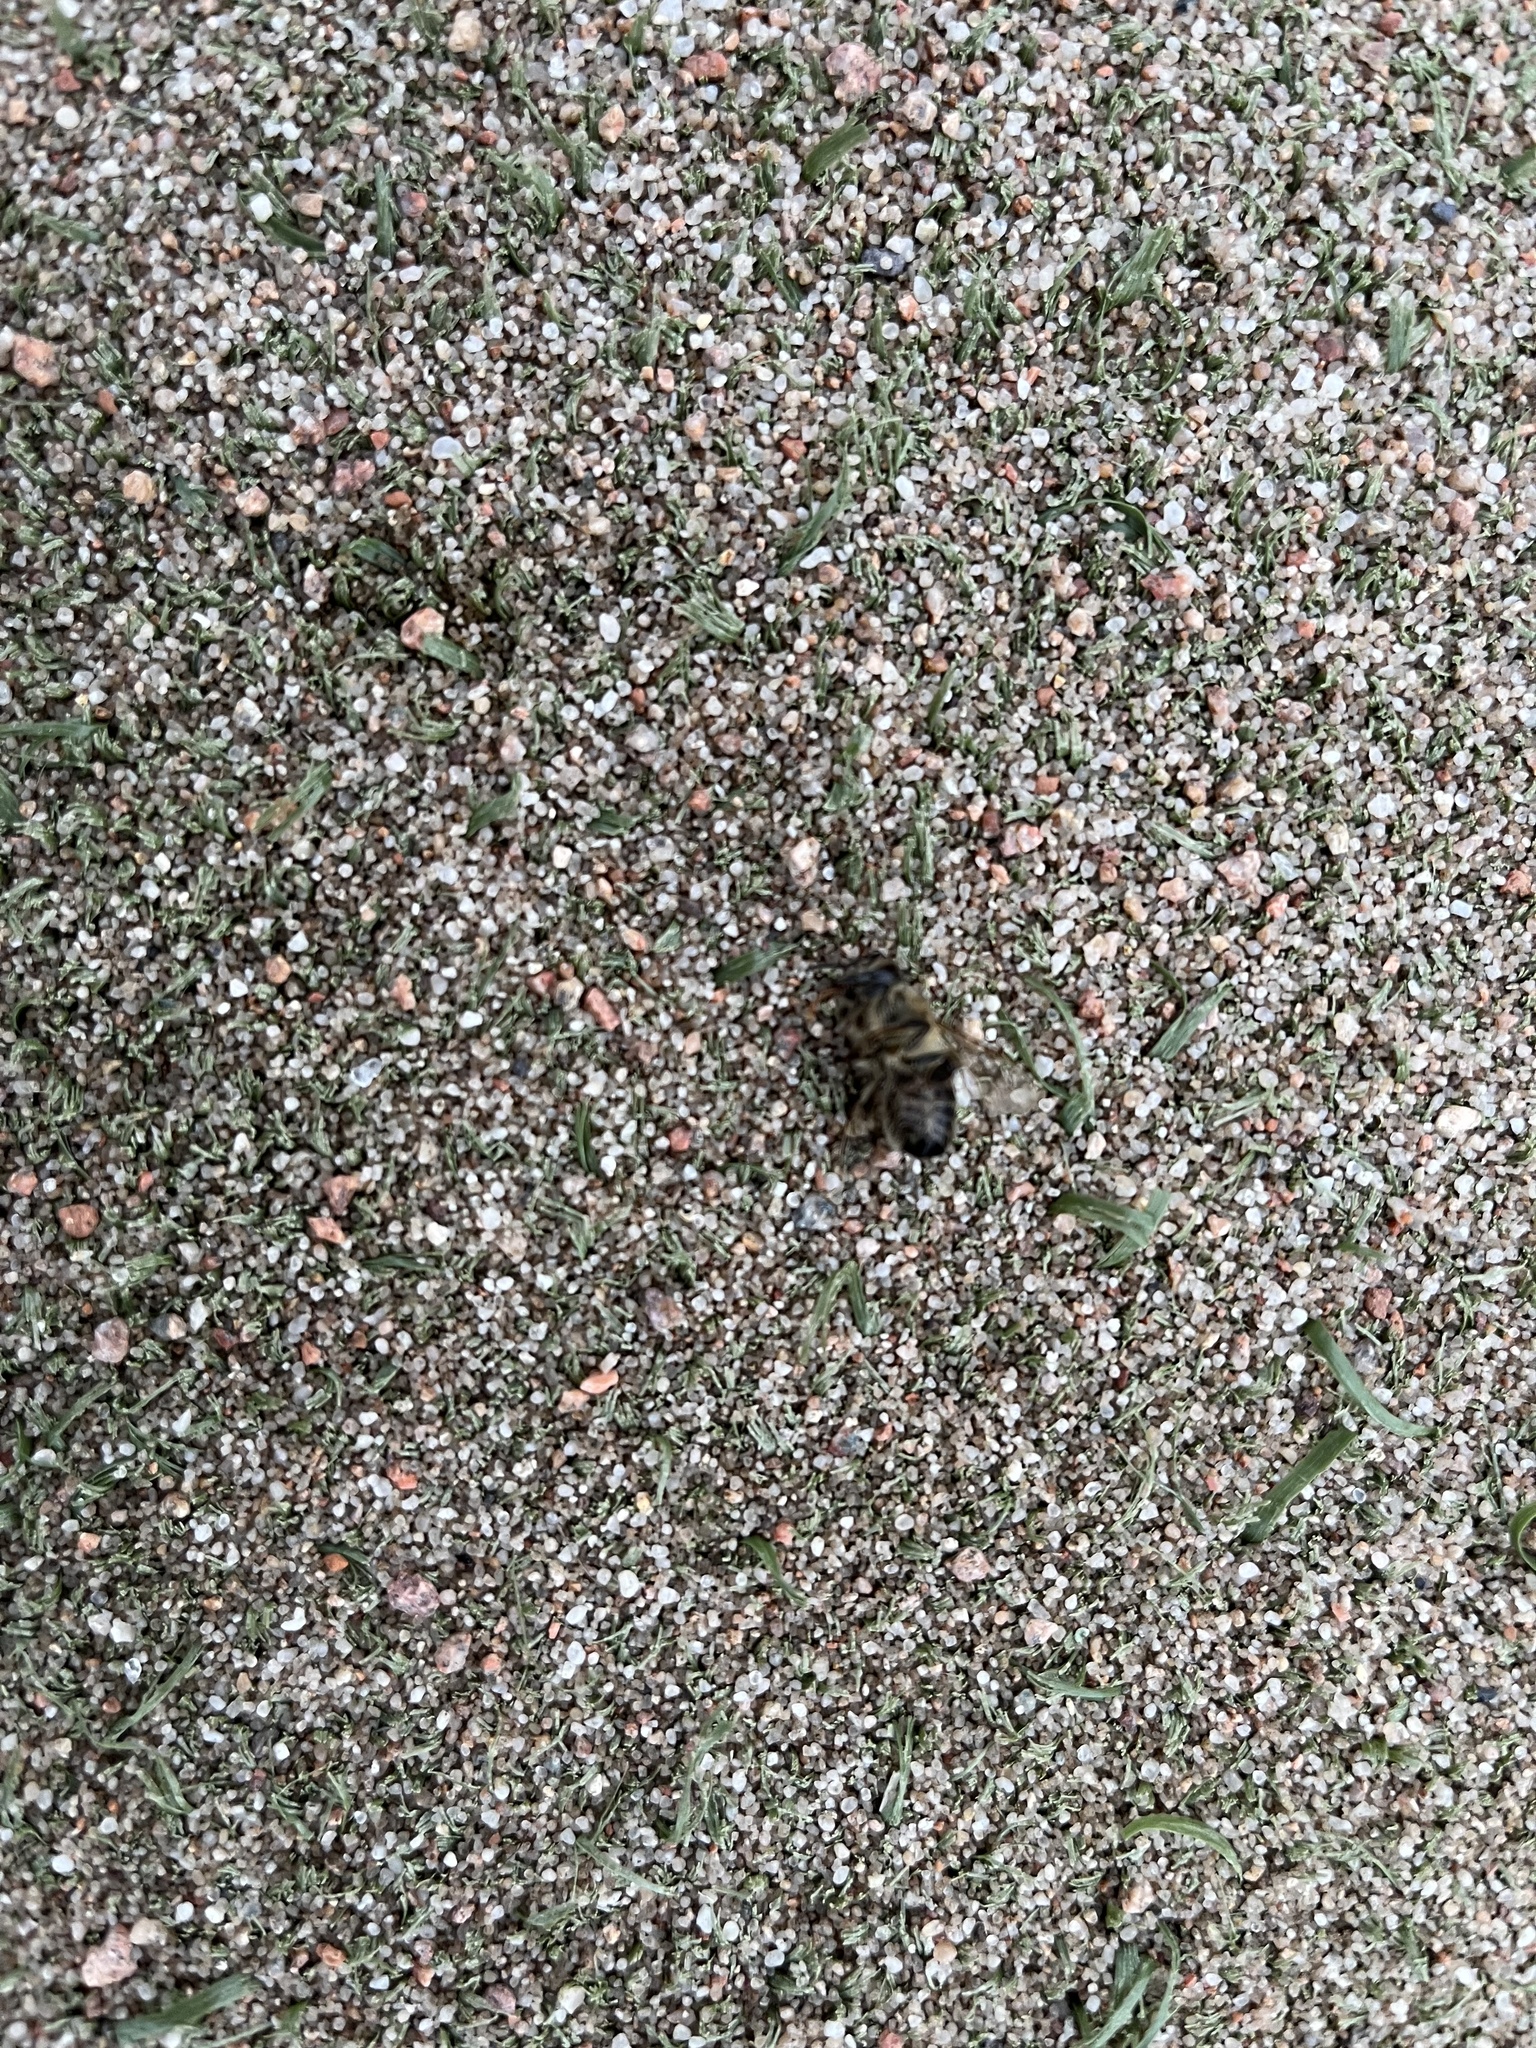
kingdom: Animalia
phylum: Arthropoda
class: Insecta
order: Hymenoptera
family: Apidae
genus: Apis
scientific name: Apis mellifera
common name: Honey bee
